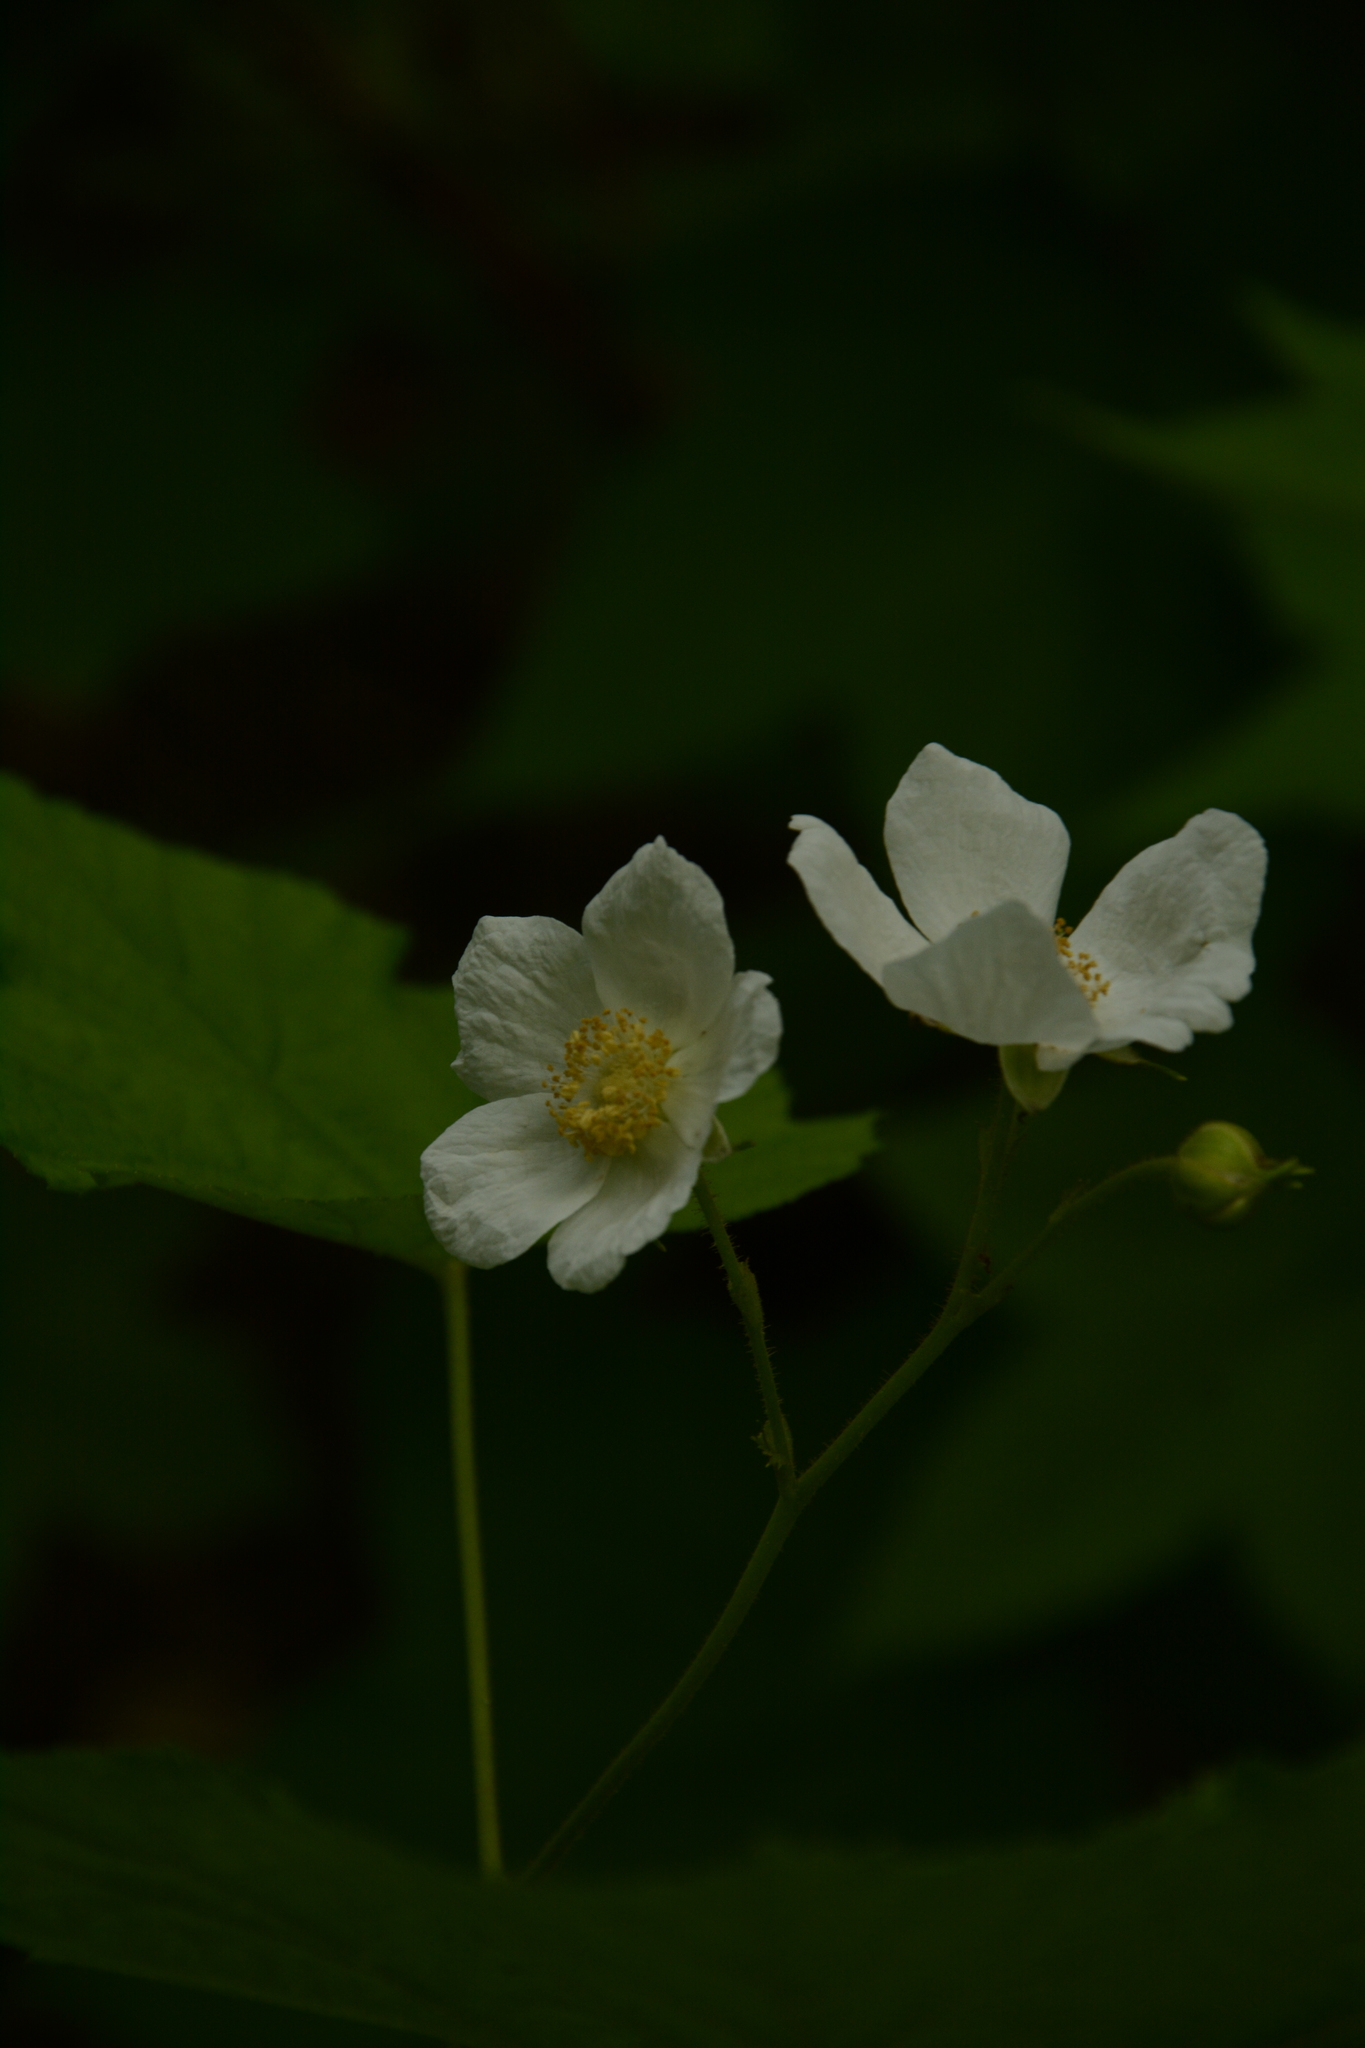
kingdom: Plantae
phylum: Tracheophyta
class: Magnoliopsida
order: Rosales
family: Rosaceae
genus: Rubus
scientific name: Rubus parviflorus
